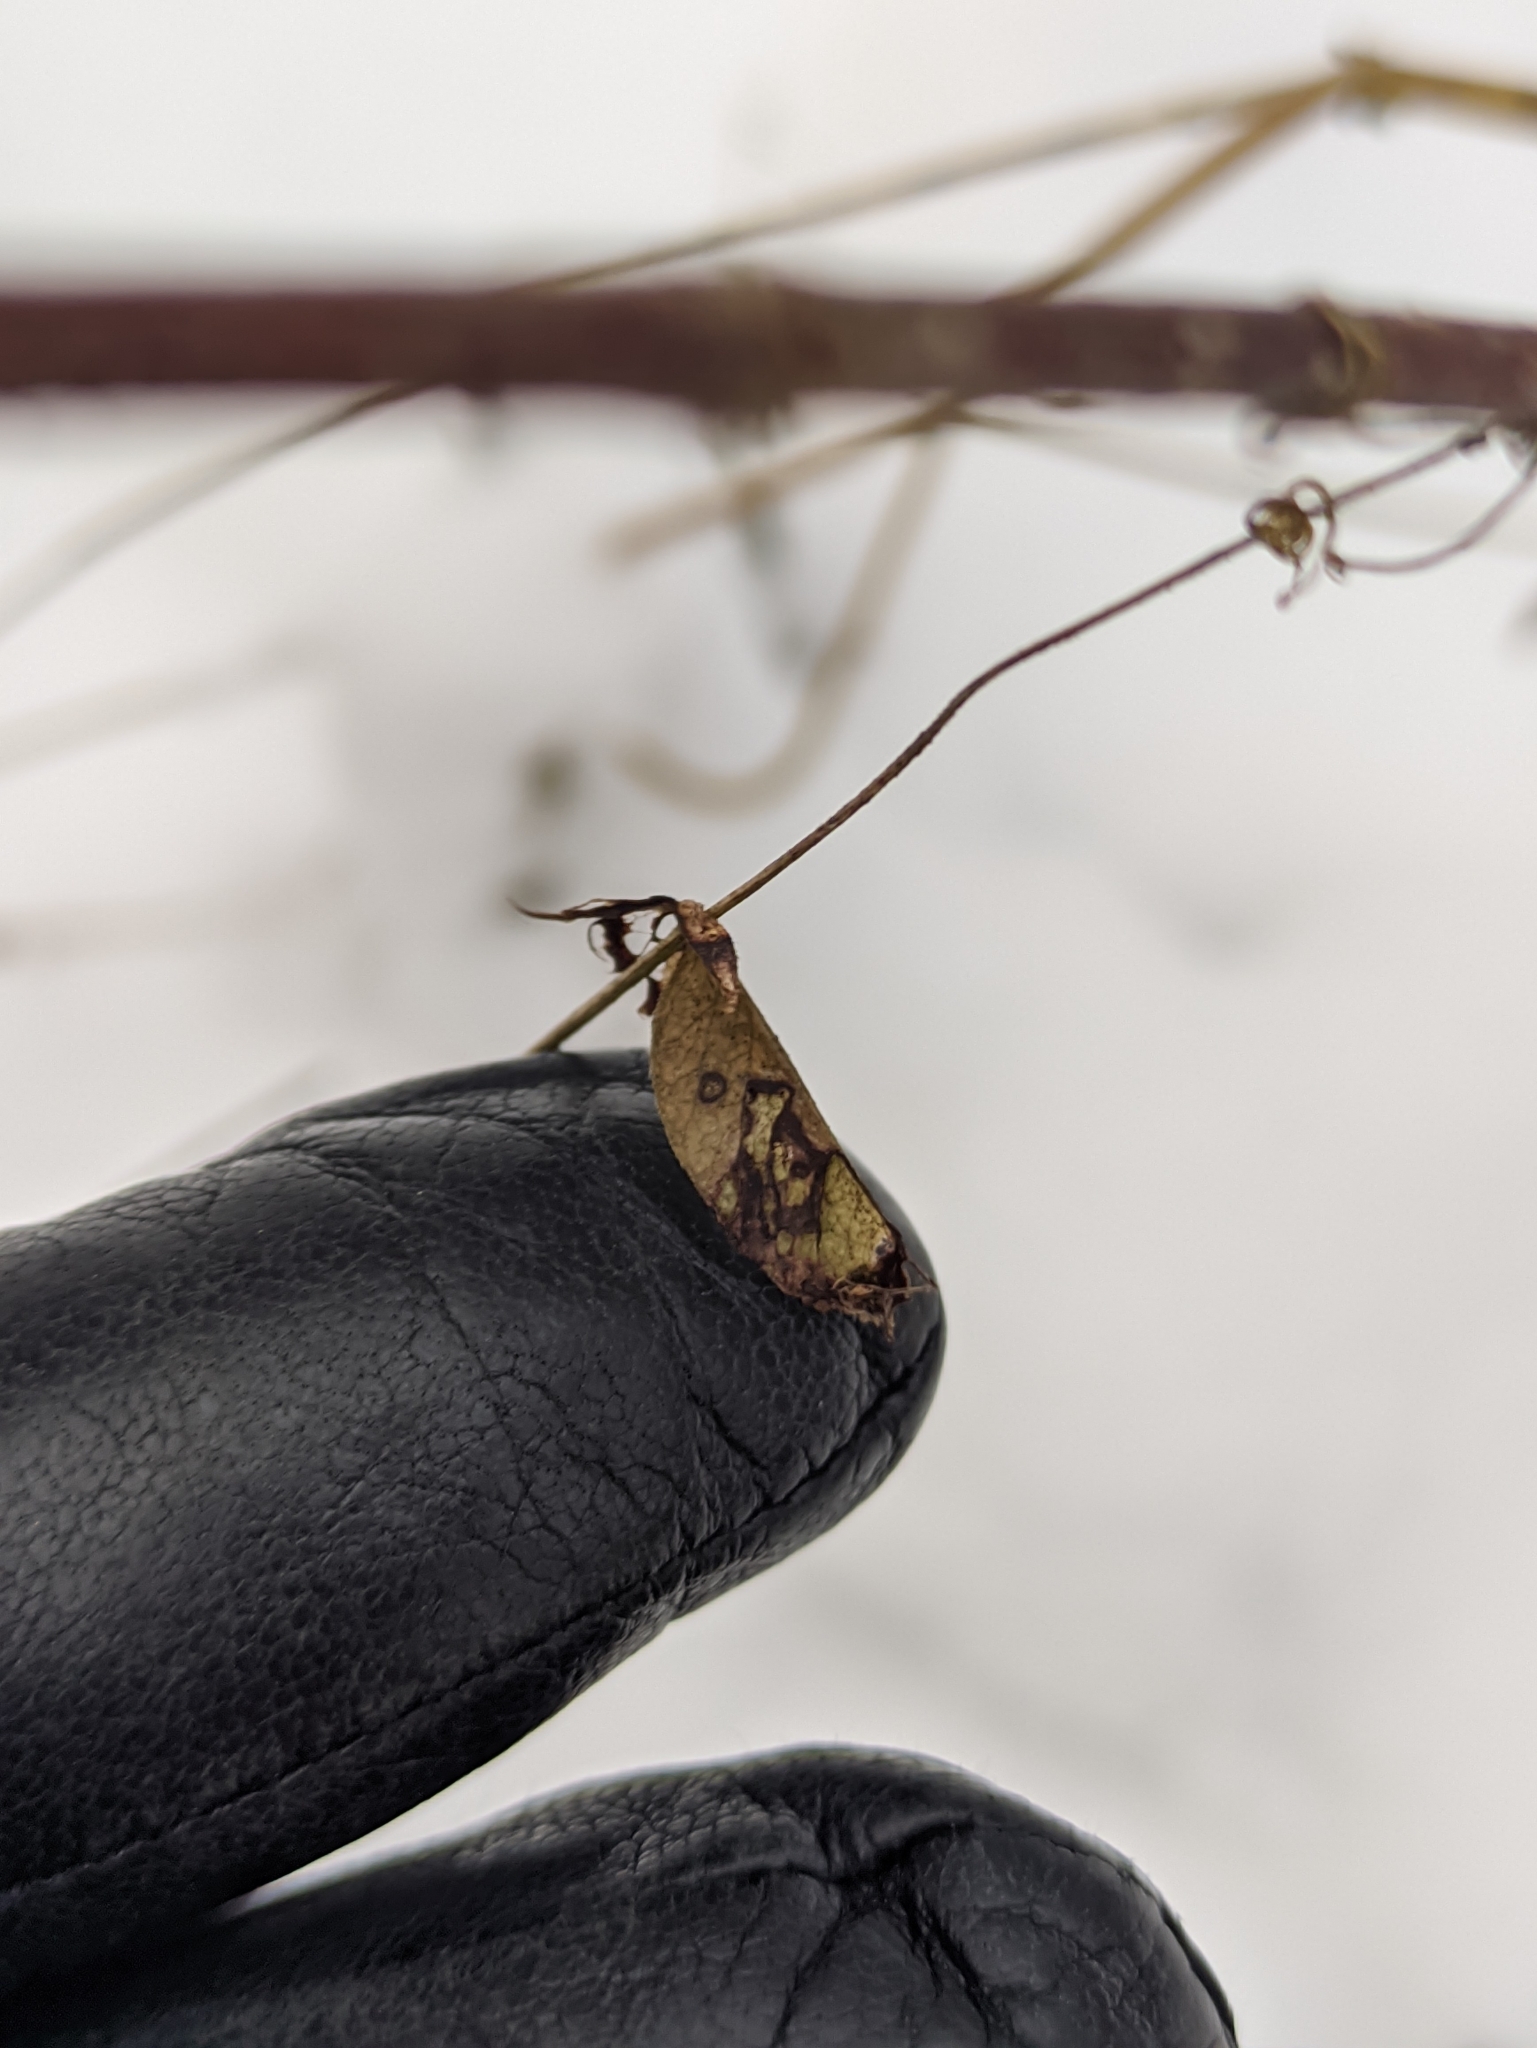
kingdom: Plantae
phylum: Tracheophyta
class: Magnoliopsida
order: Fabales
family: Fabaceae
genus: Vicia
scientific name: Vicia sepium
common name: Bush vetch
